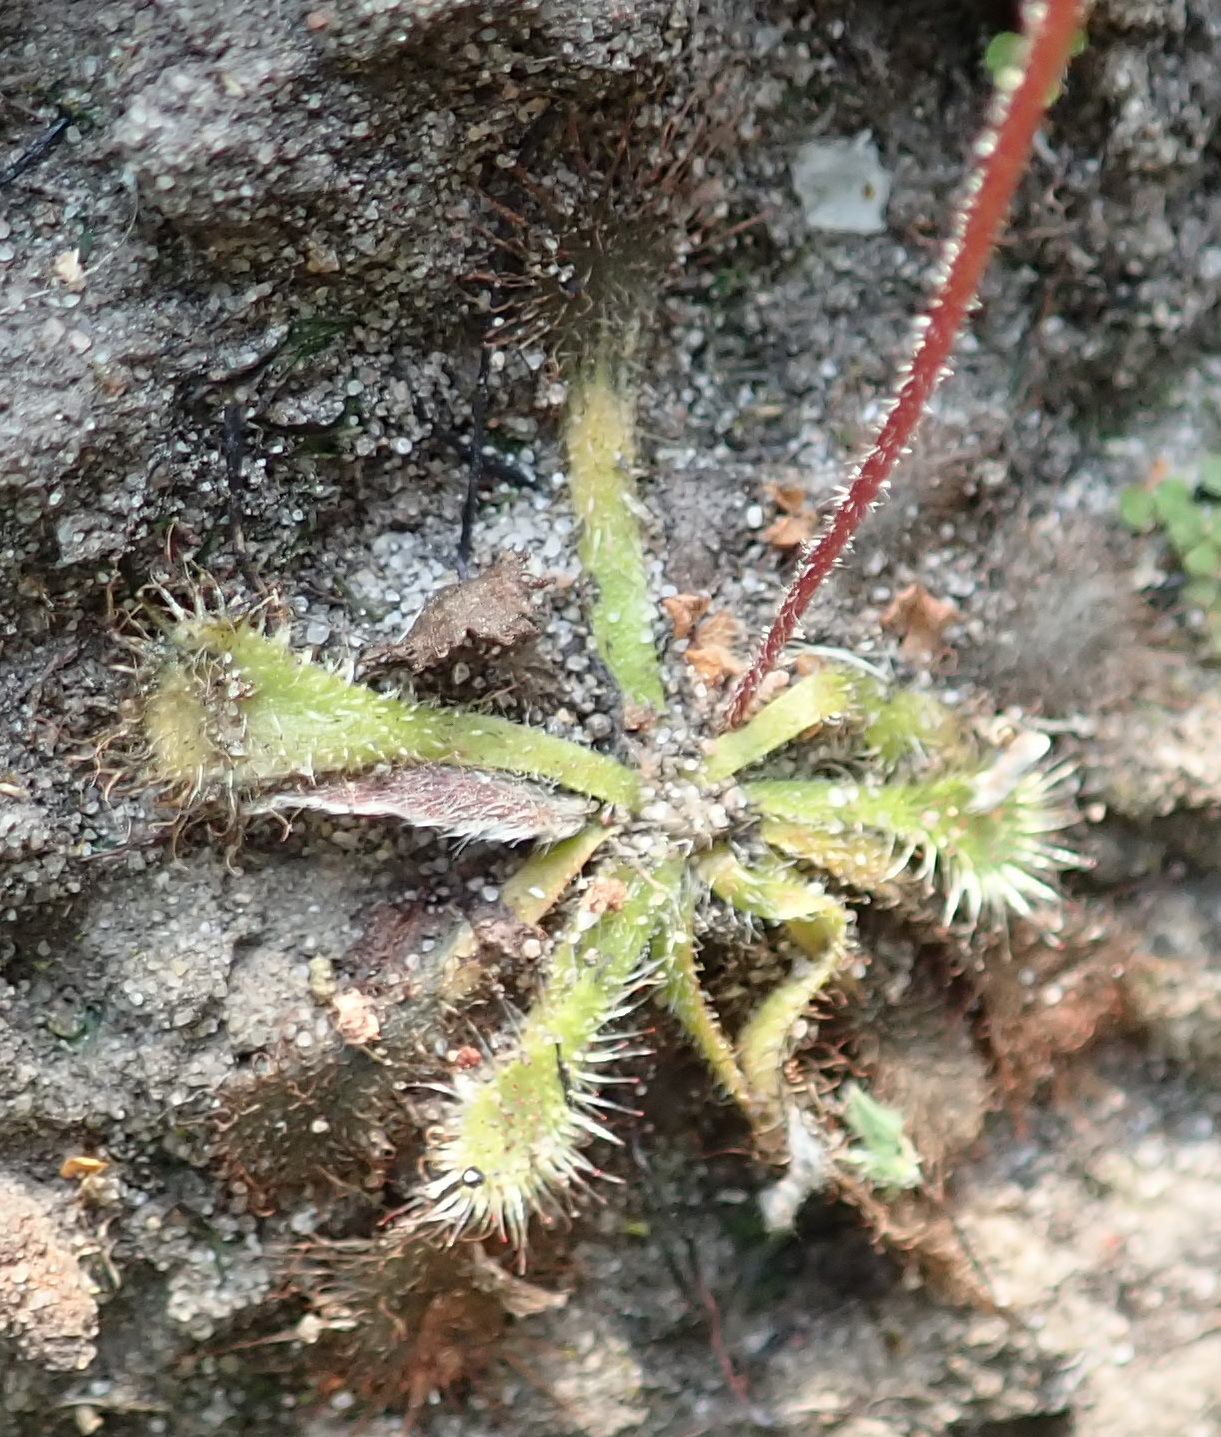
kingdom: Plantae
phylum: Tracheophyta
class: Magnoliopsida
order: Caryophyllales
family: Droseraceae
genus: Drosera
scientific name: Drosera natalensis
